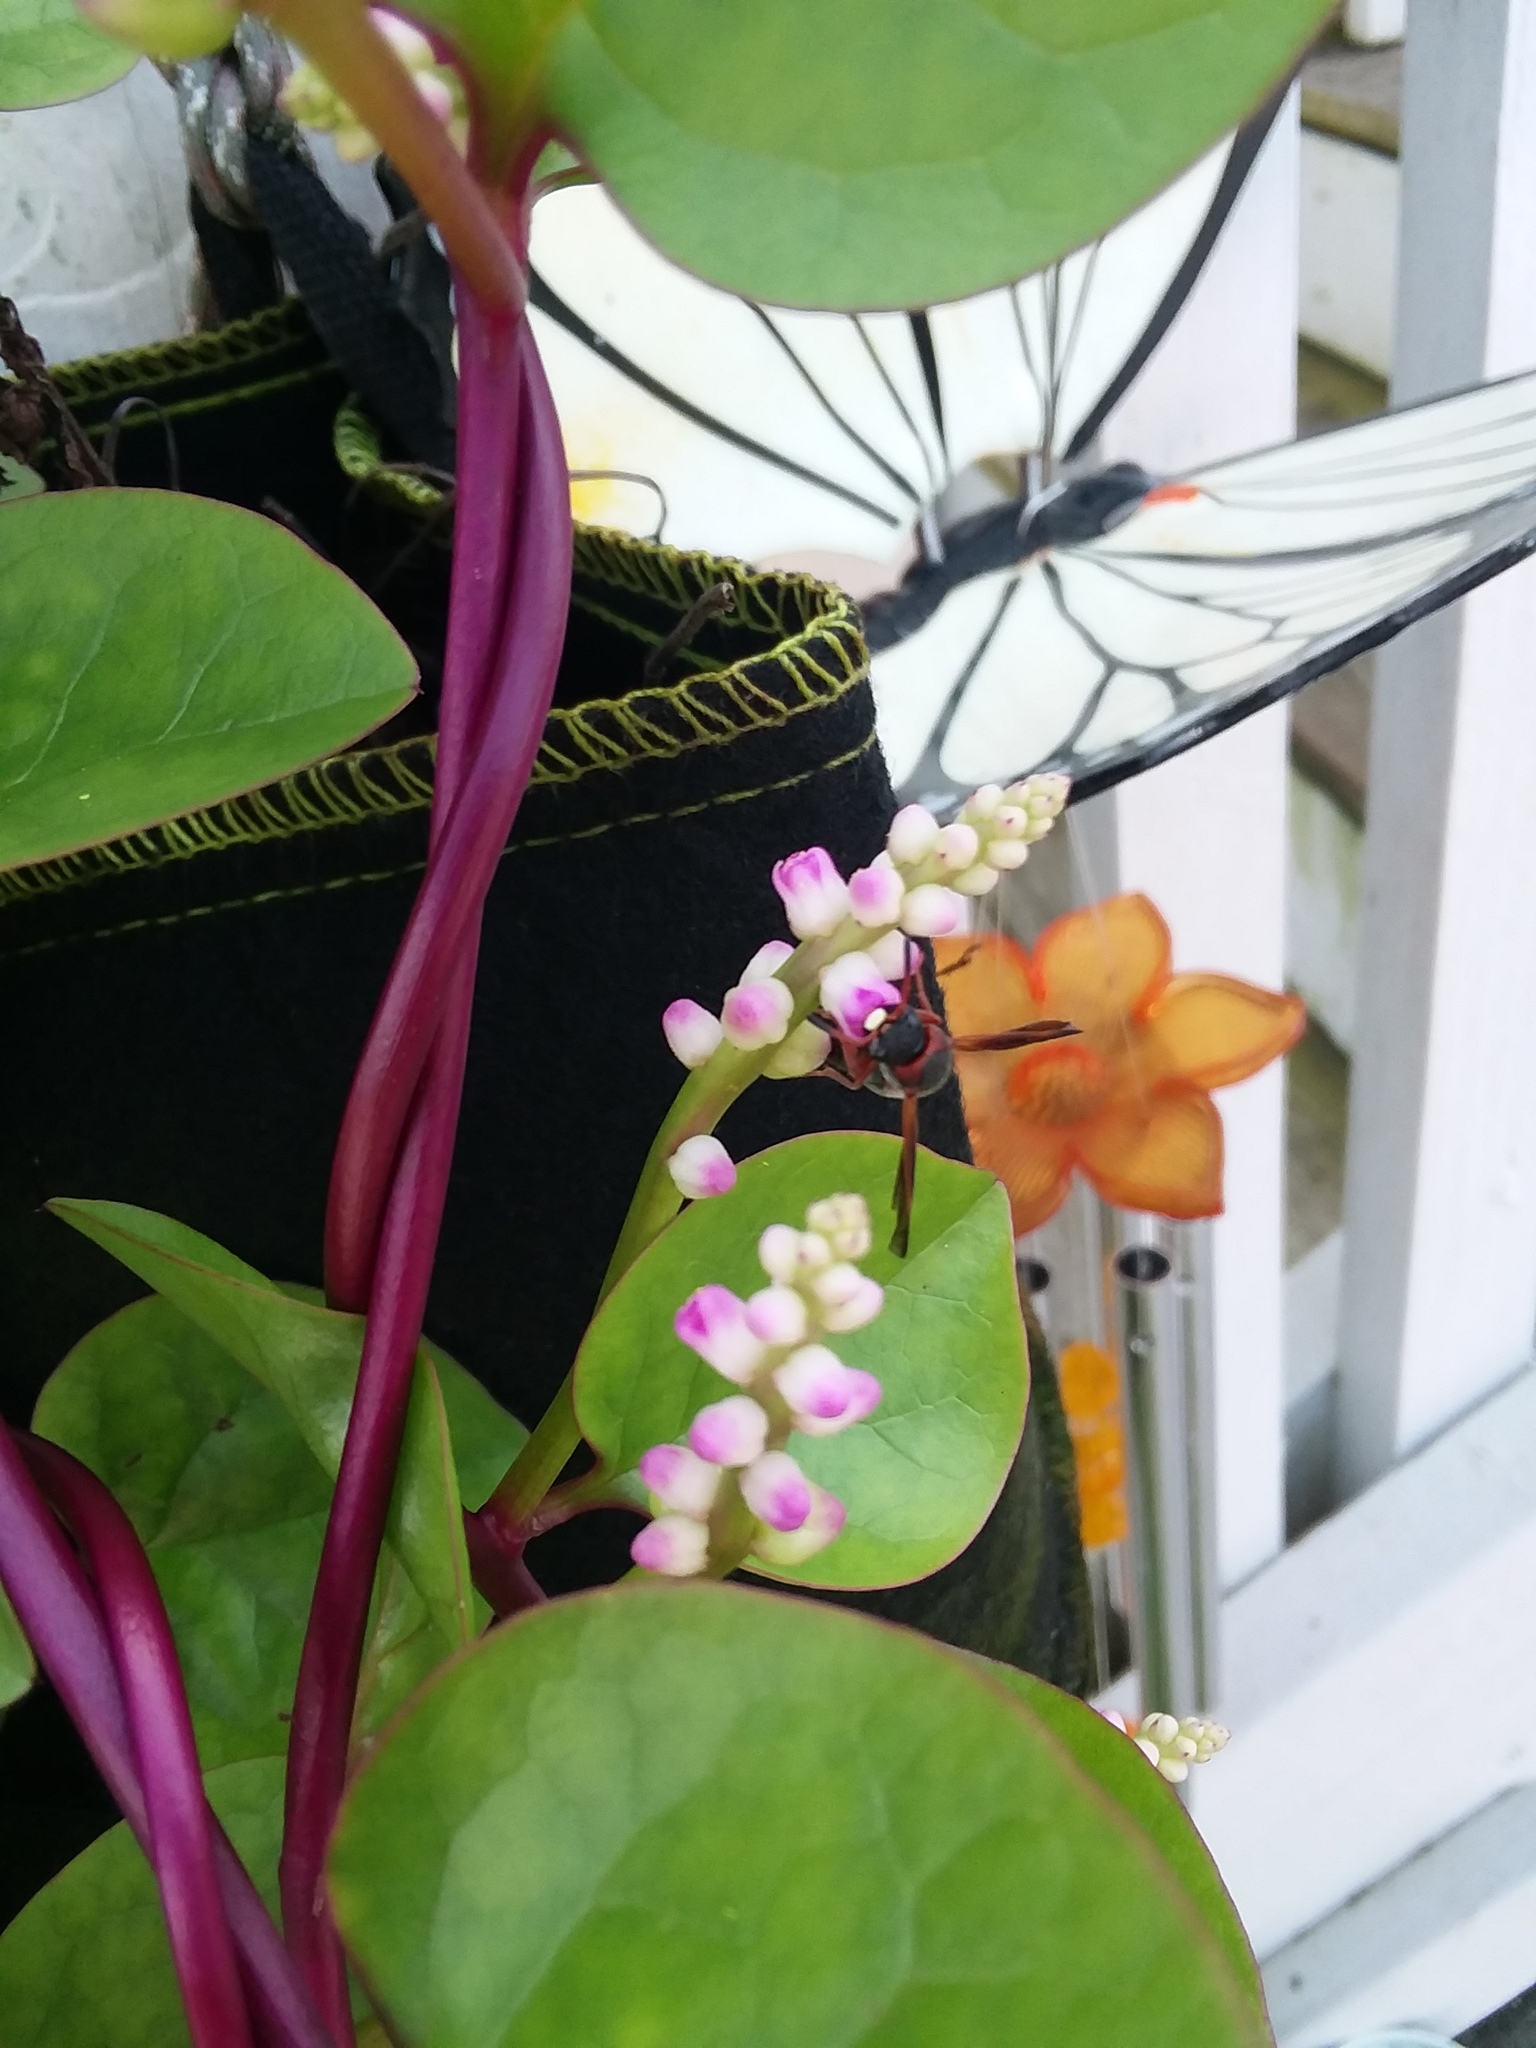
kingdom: Animalia
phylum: Arthropoda
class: Insecta
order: Hymenoptera
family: Eumenidae
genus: Pachodynerus
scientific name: Pachodynerus erynnis
